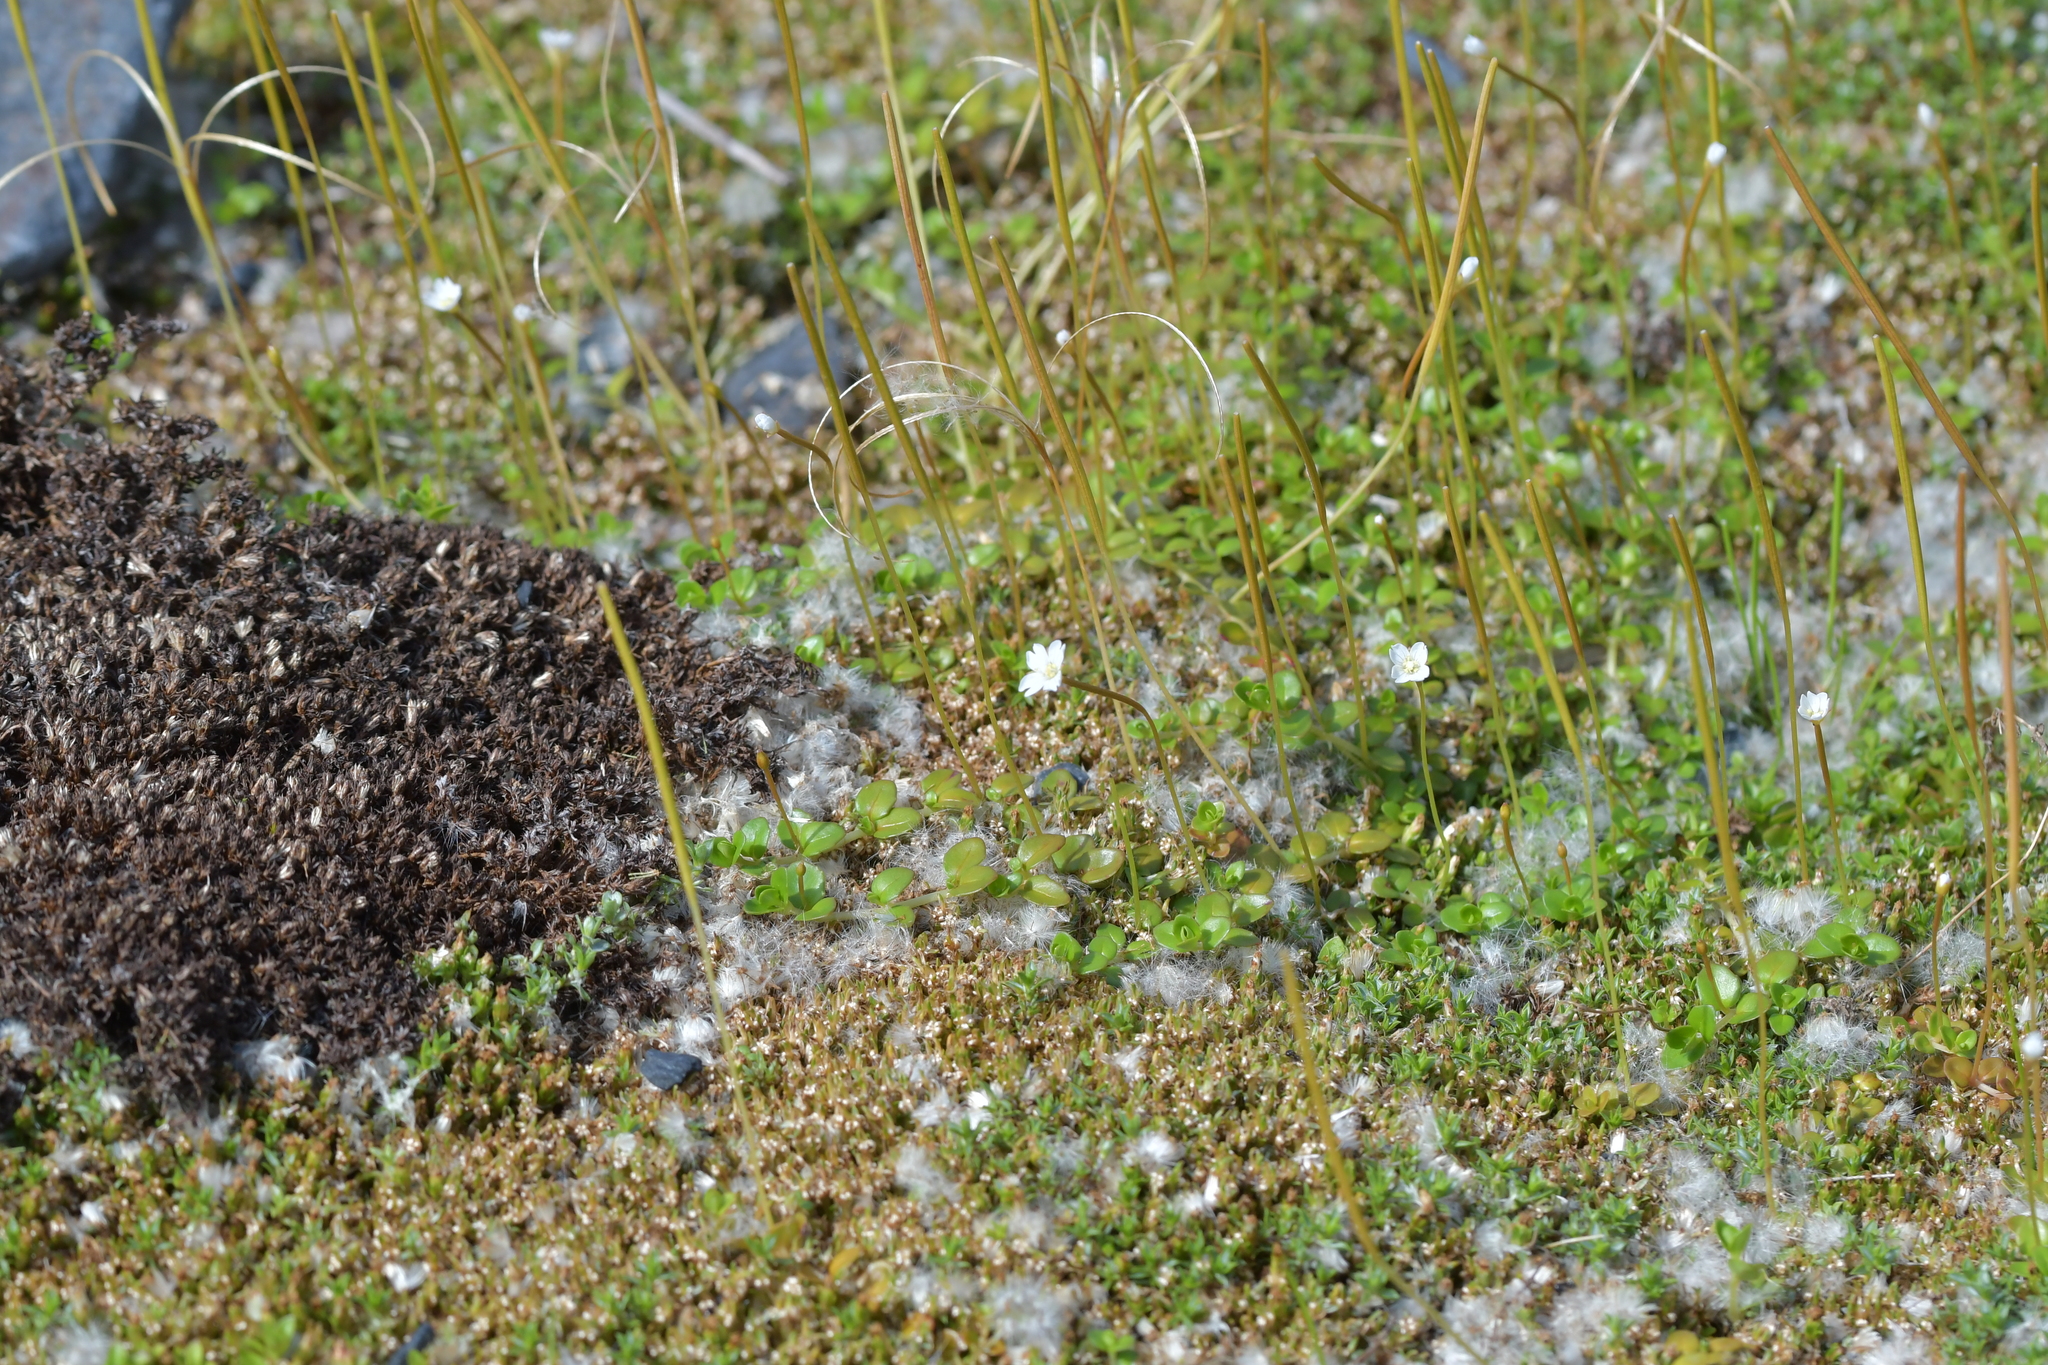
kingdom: Plantae
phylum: Tracheophyta
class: Magnoliopsida
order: Myrtales
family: Onagraceae
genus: Epilobium
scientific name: Epilobium brunnescens
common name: New zealand willowherb
